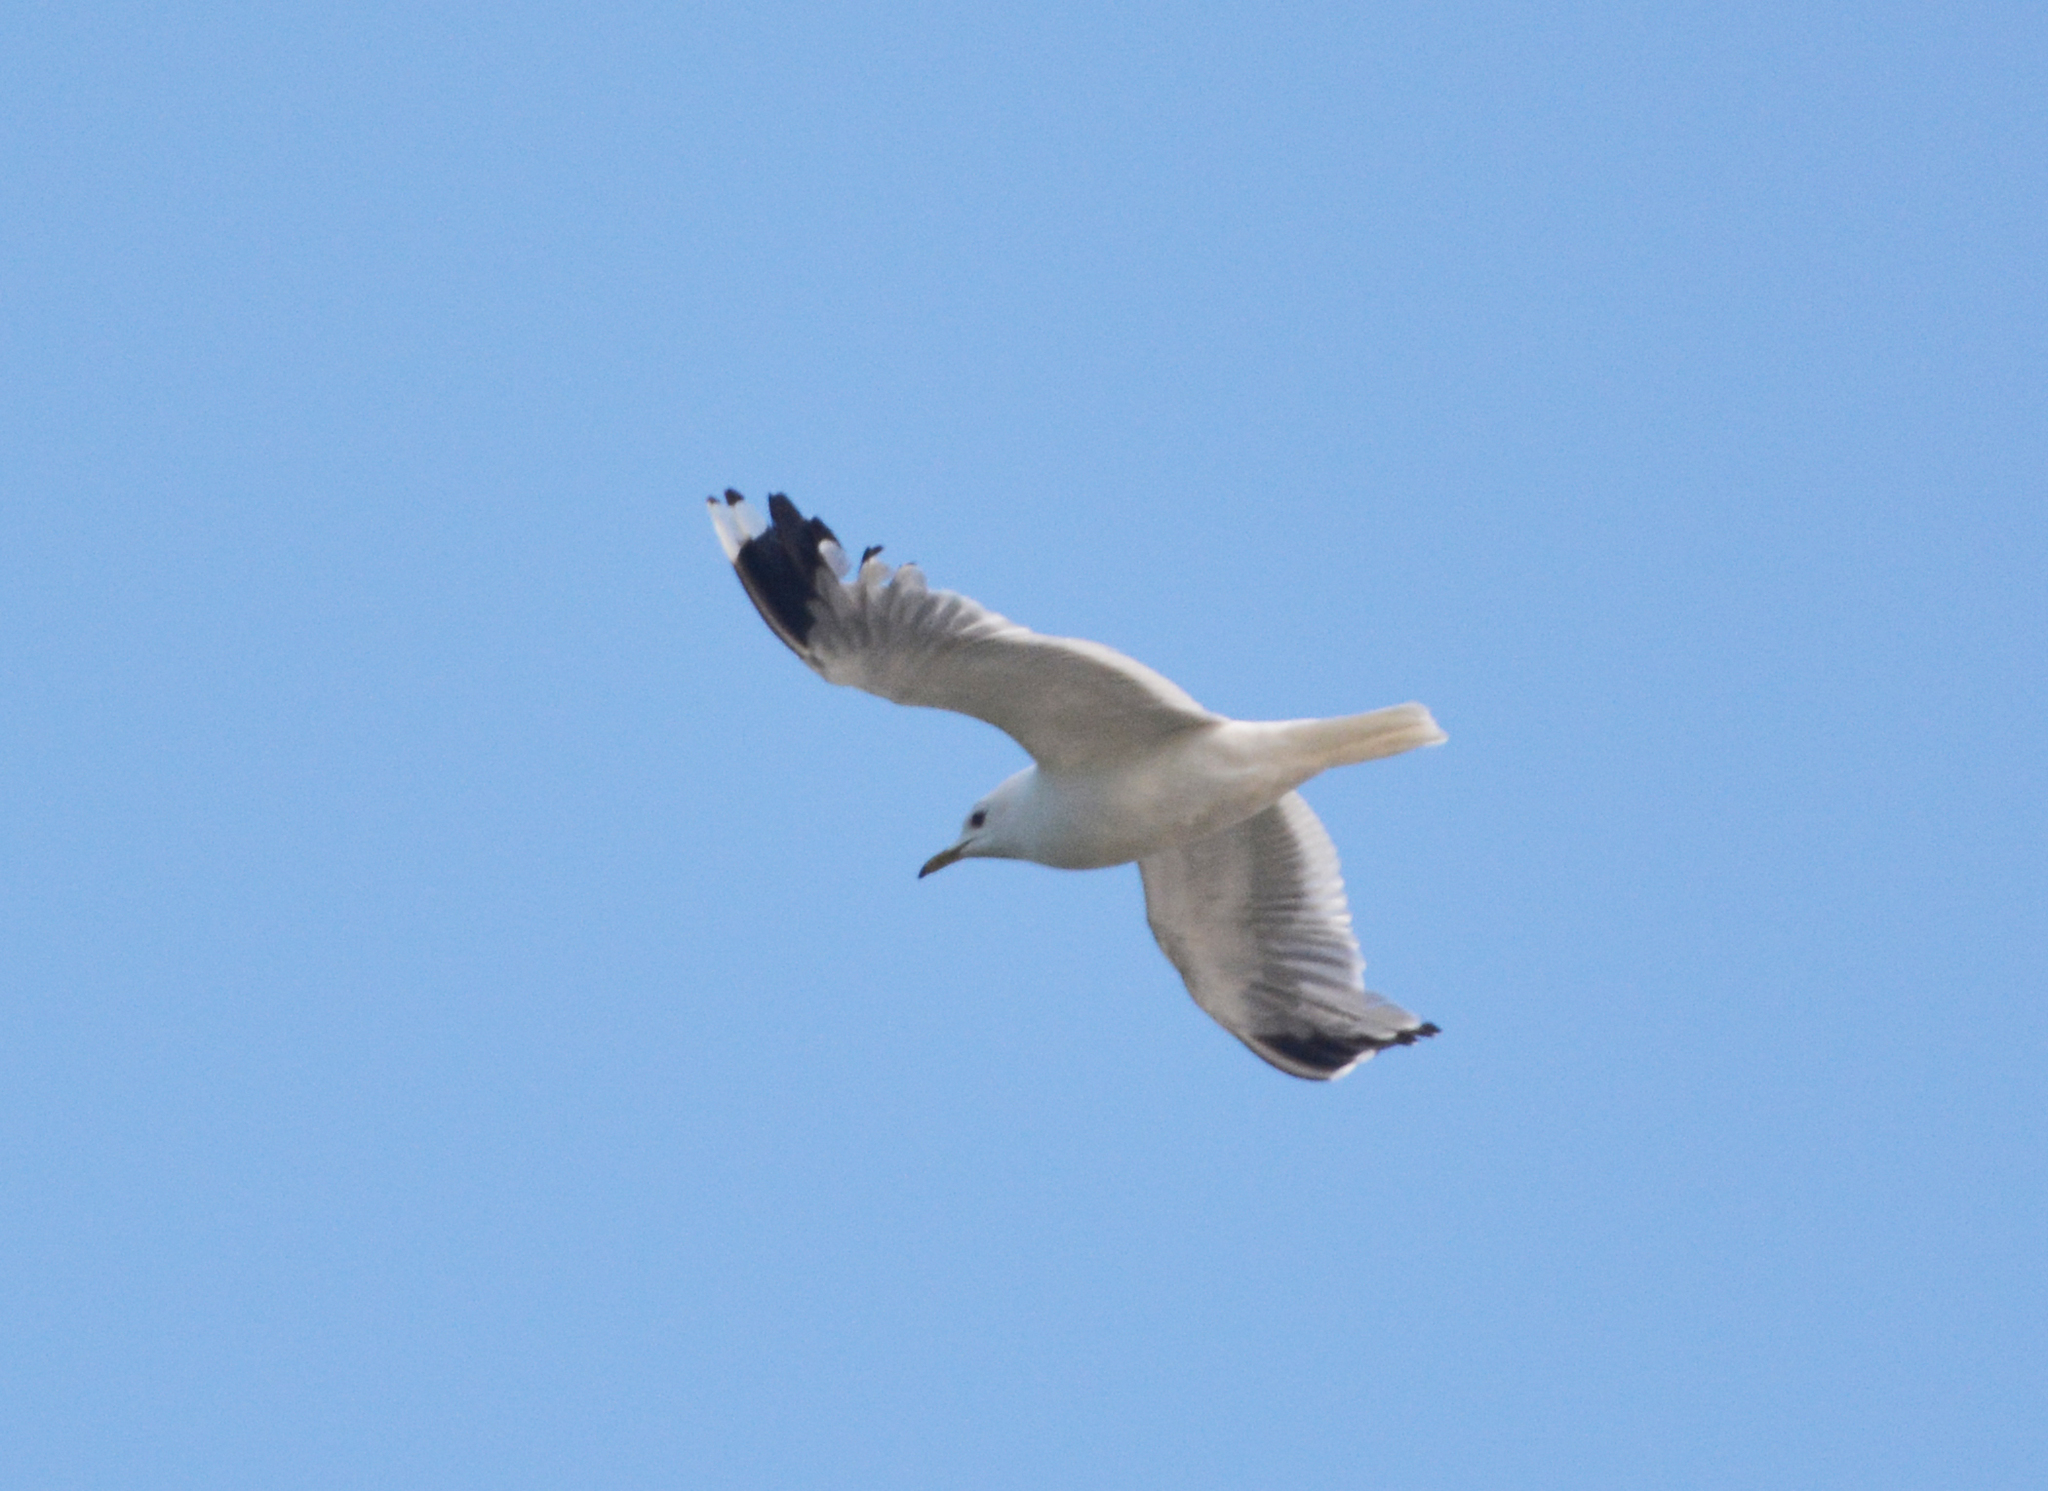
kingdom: Animalia
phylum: Chordata
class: Aves
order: Charadriiformes
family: Laridae
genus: Larus
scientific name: Larus canus
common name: Mew gull
